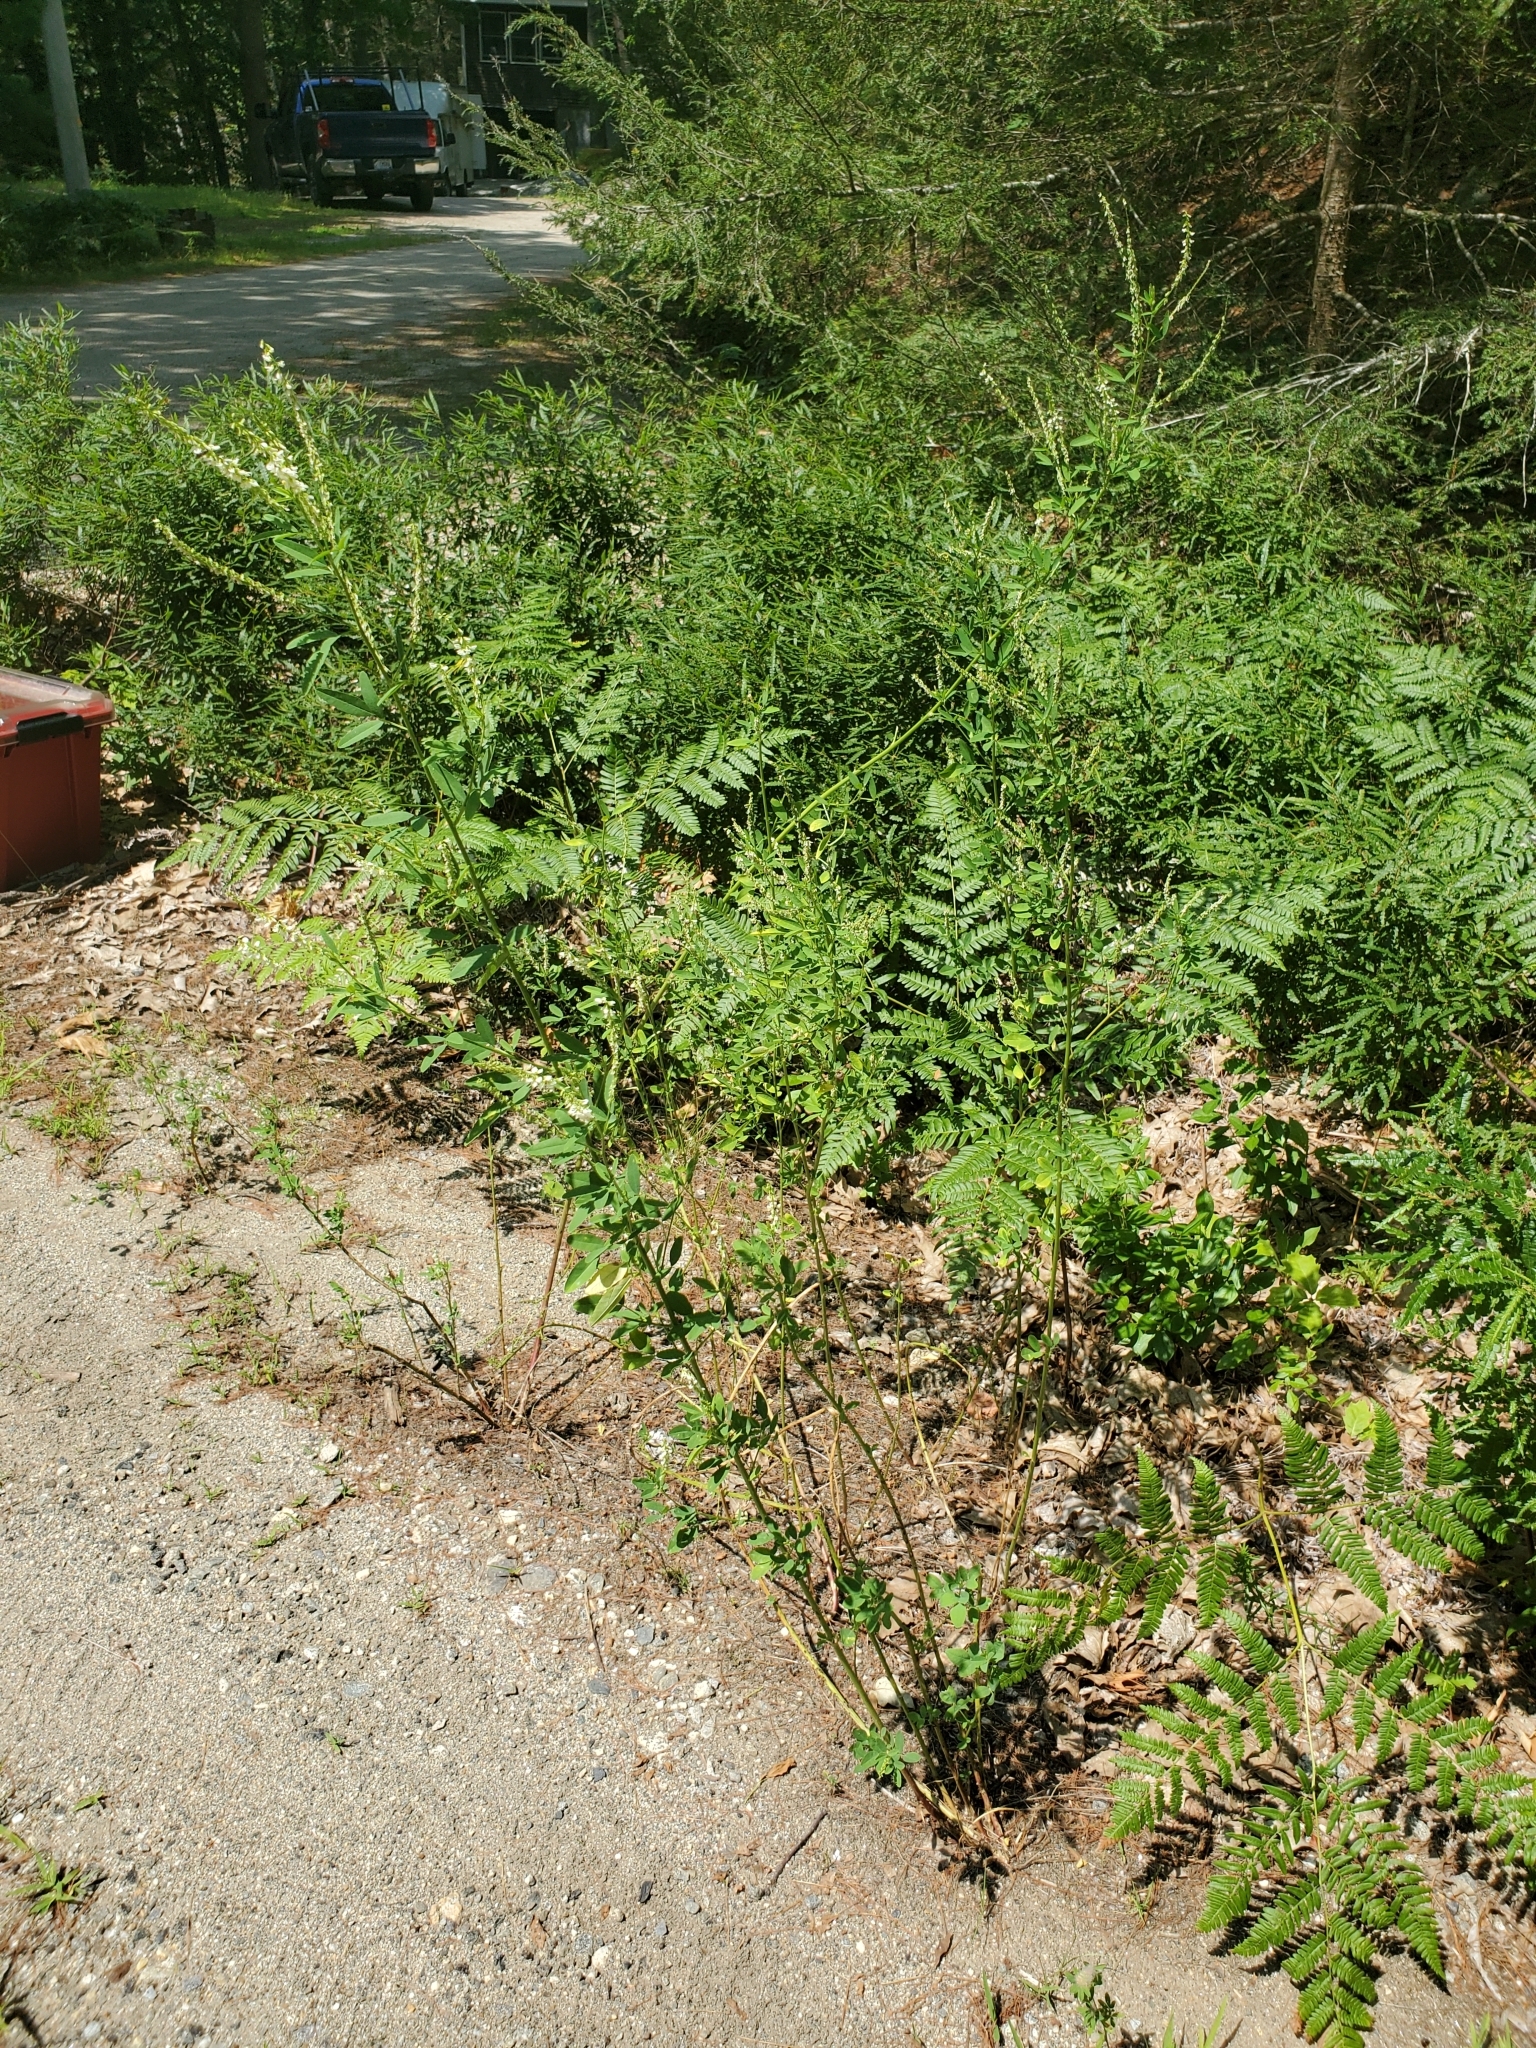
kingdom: Plantae
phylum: Tracheophyta
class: Magnoliopsida
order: Fabales
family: Fabaceae
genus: Melilotus
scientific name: Melilotus albus
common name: White melilot
